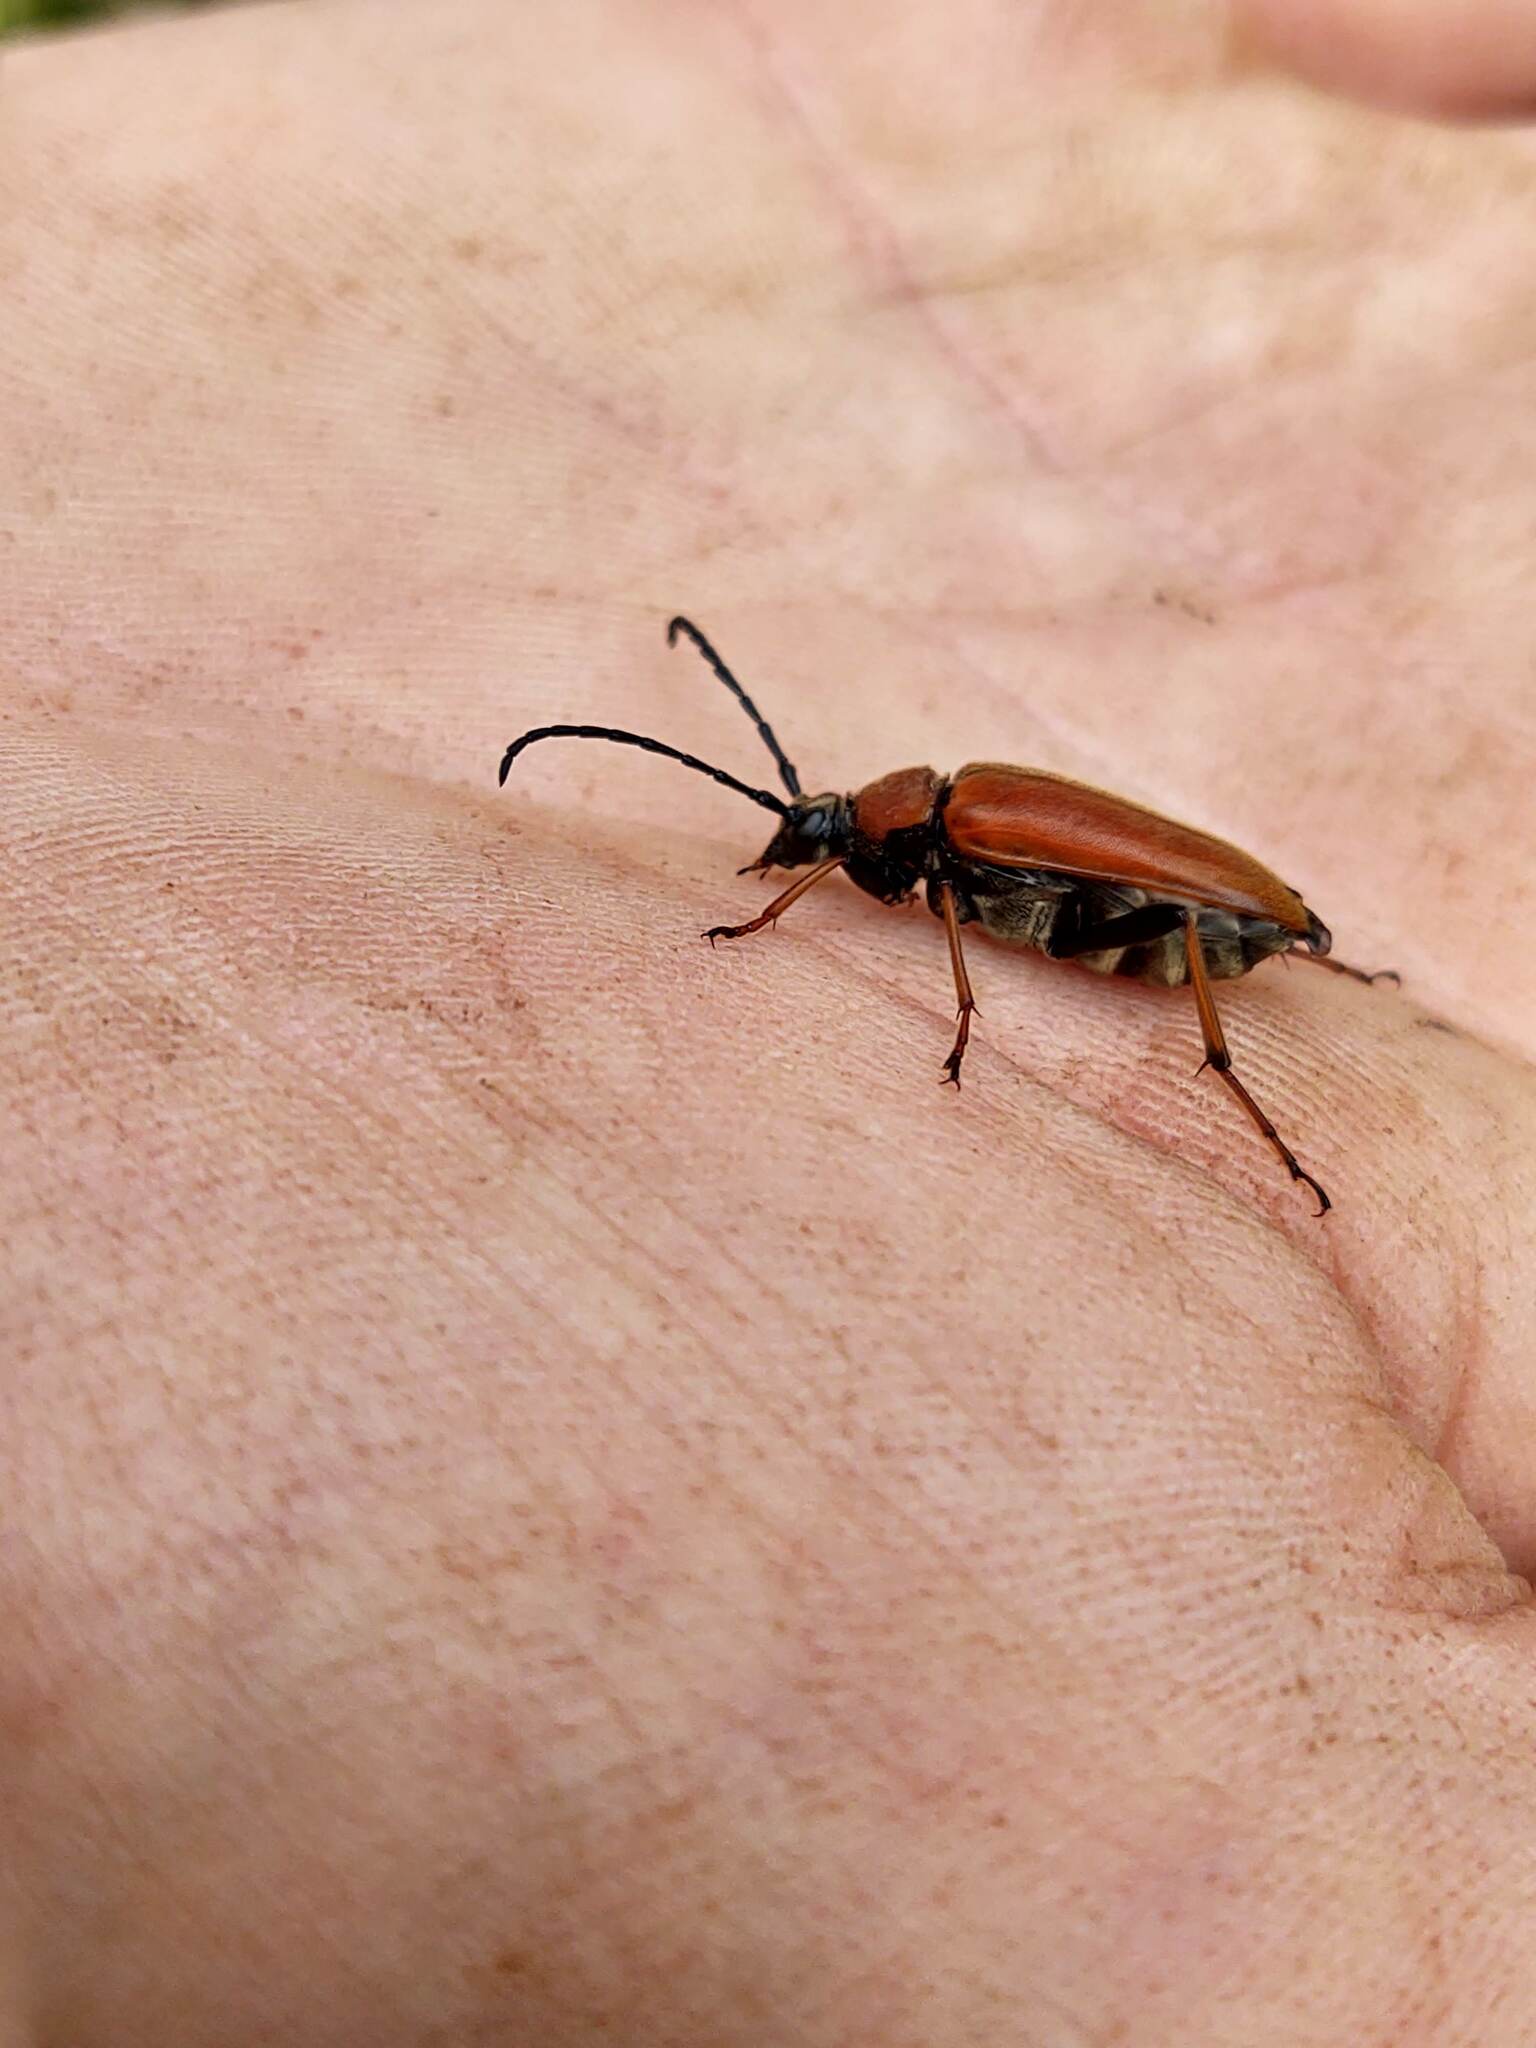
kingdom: Animalia
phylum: Arthropoda
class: Insecta
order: Coleoptera
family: Cerambycidae
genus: Stictoleptura
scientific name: Stictoleptura rubra
